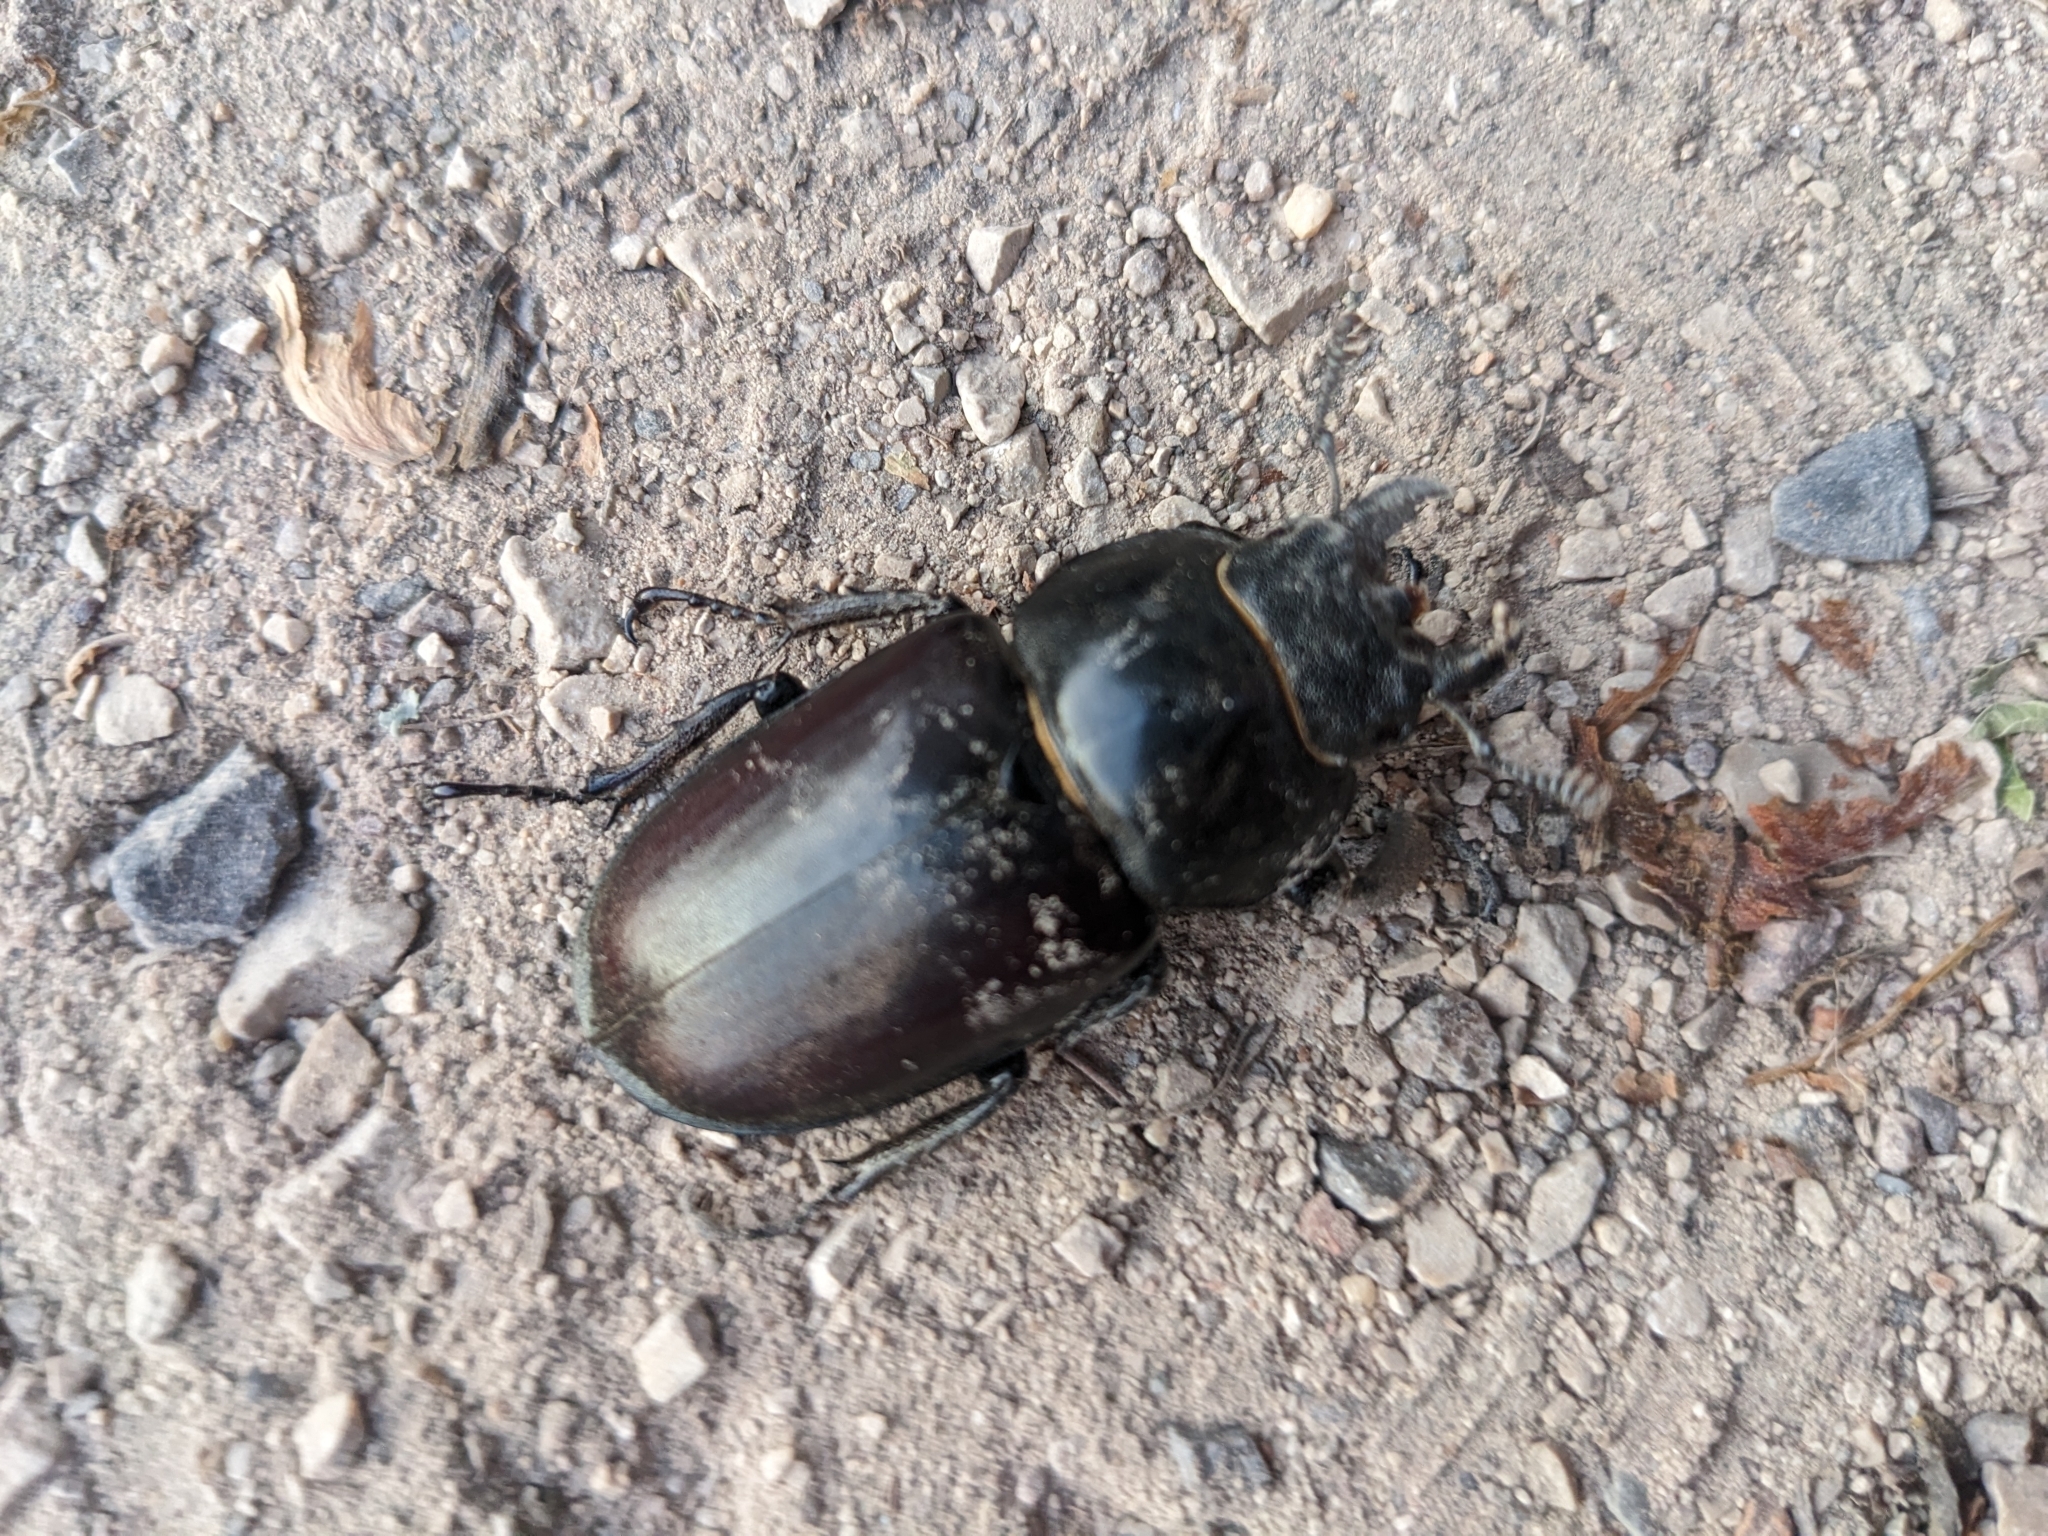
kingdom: Animalia
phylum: Arthropoda
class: Insecta
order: Coleoptera
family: Lucanidae
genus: Lucanus
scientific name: Lucanus cervus
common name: Stag beetle
